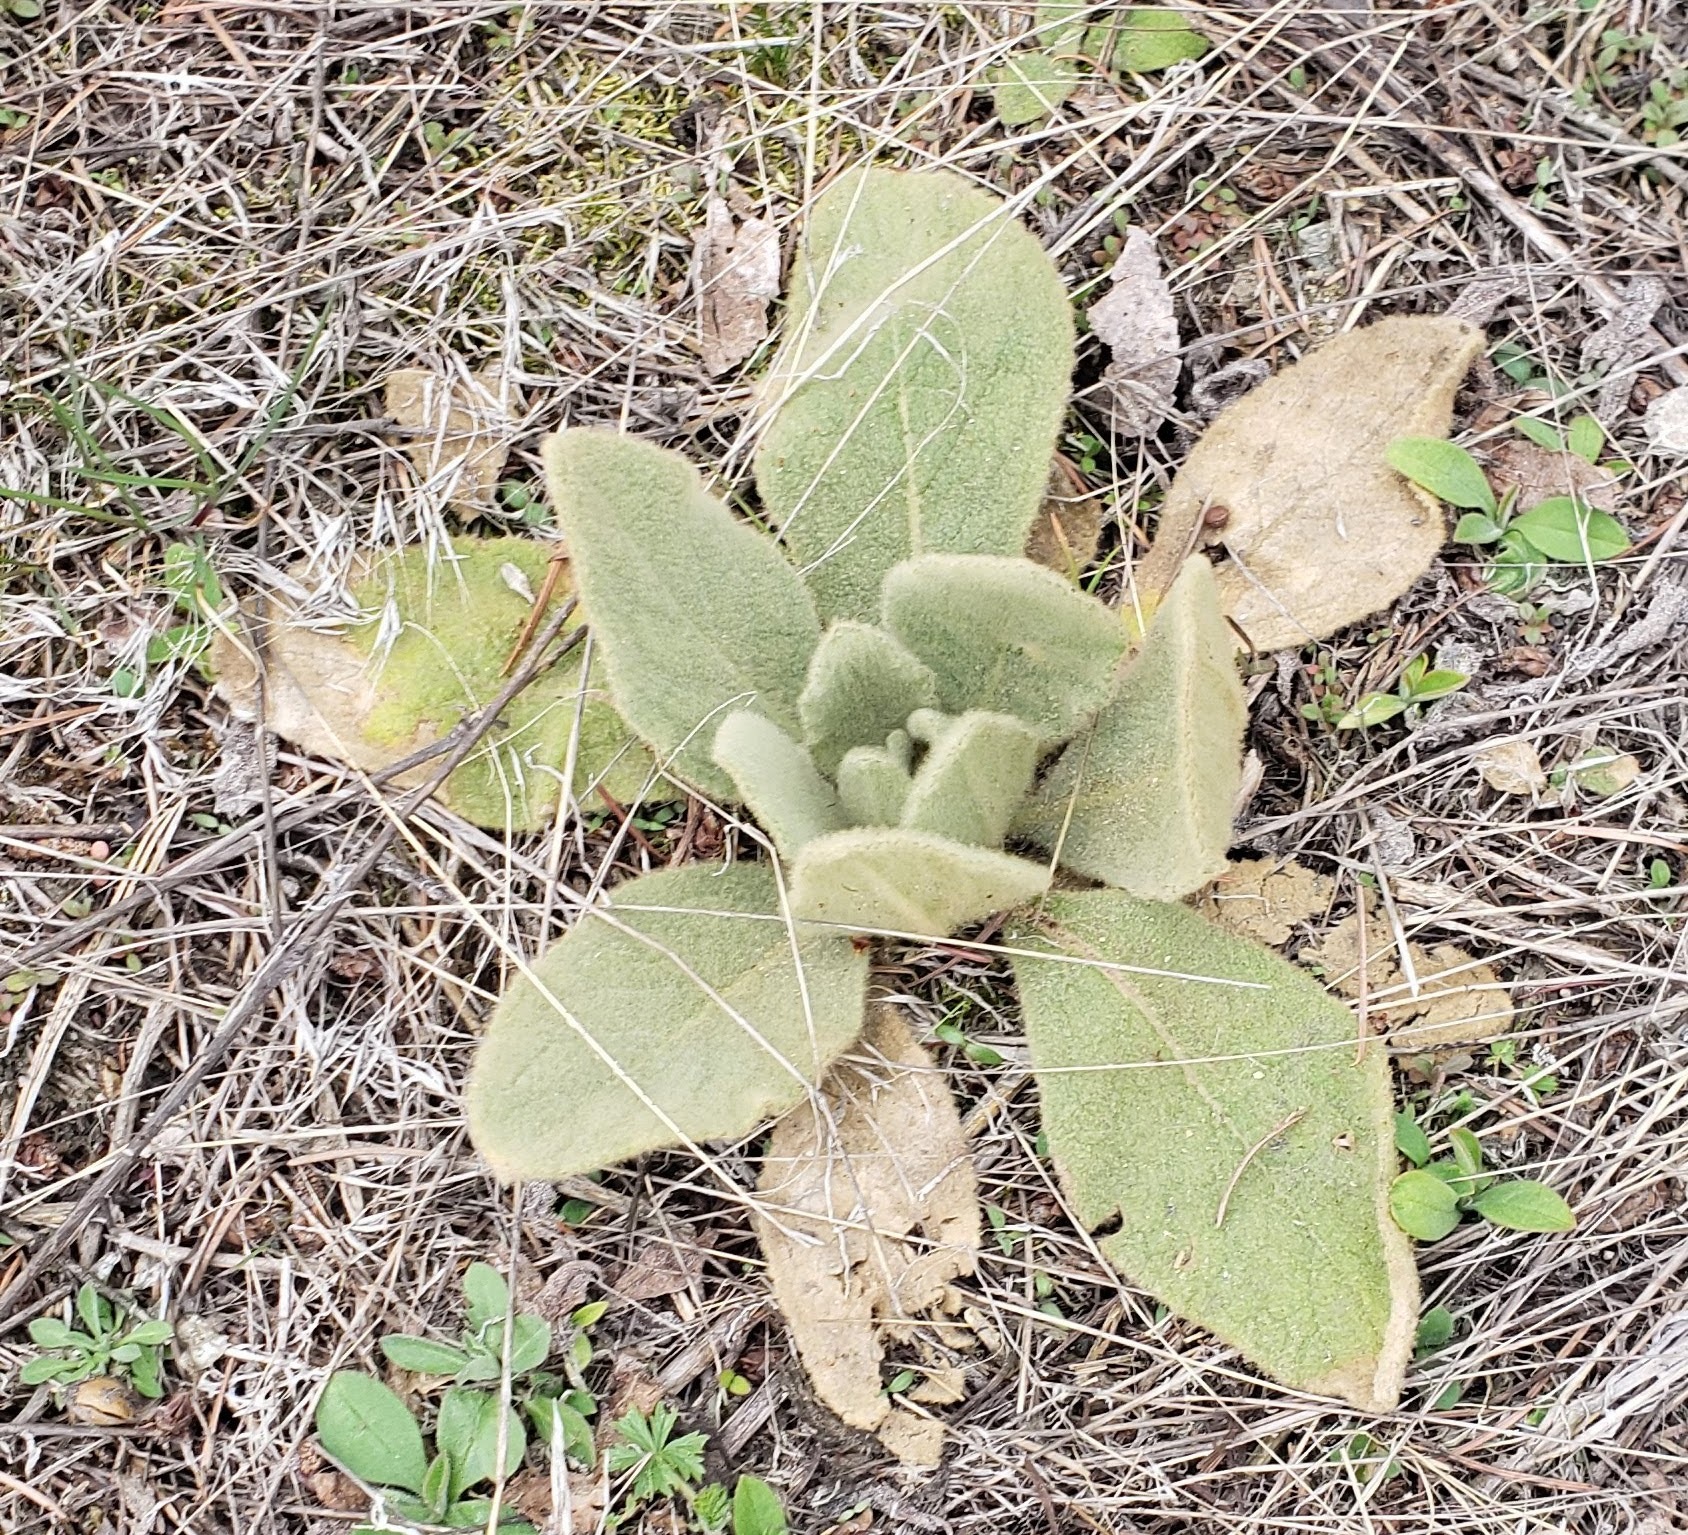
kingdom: Plantae
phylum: Tracheophyta
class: Magnoliopsida
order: Lamiales
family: Scrophulariaceae
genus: Verbascum
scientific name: Verbascum thapsus
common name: Common mullein
